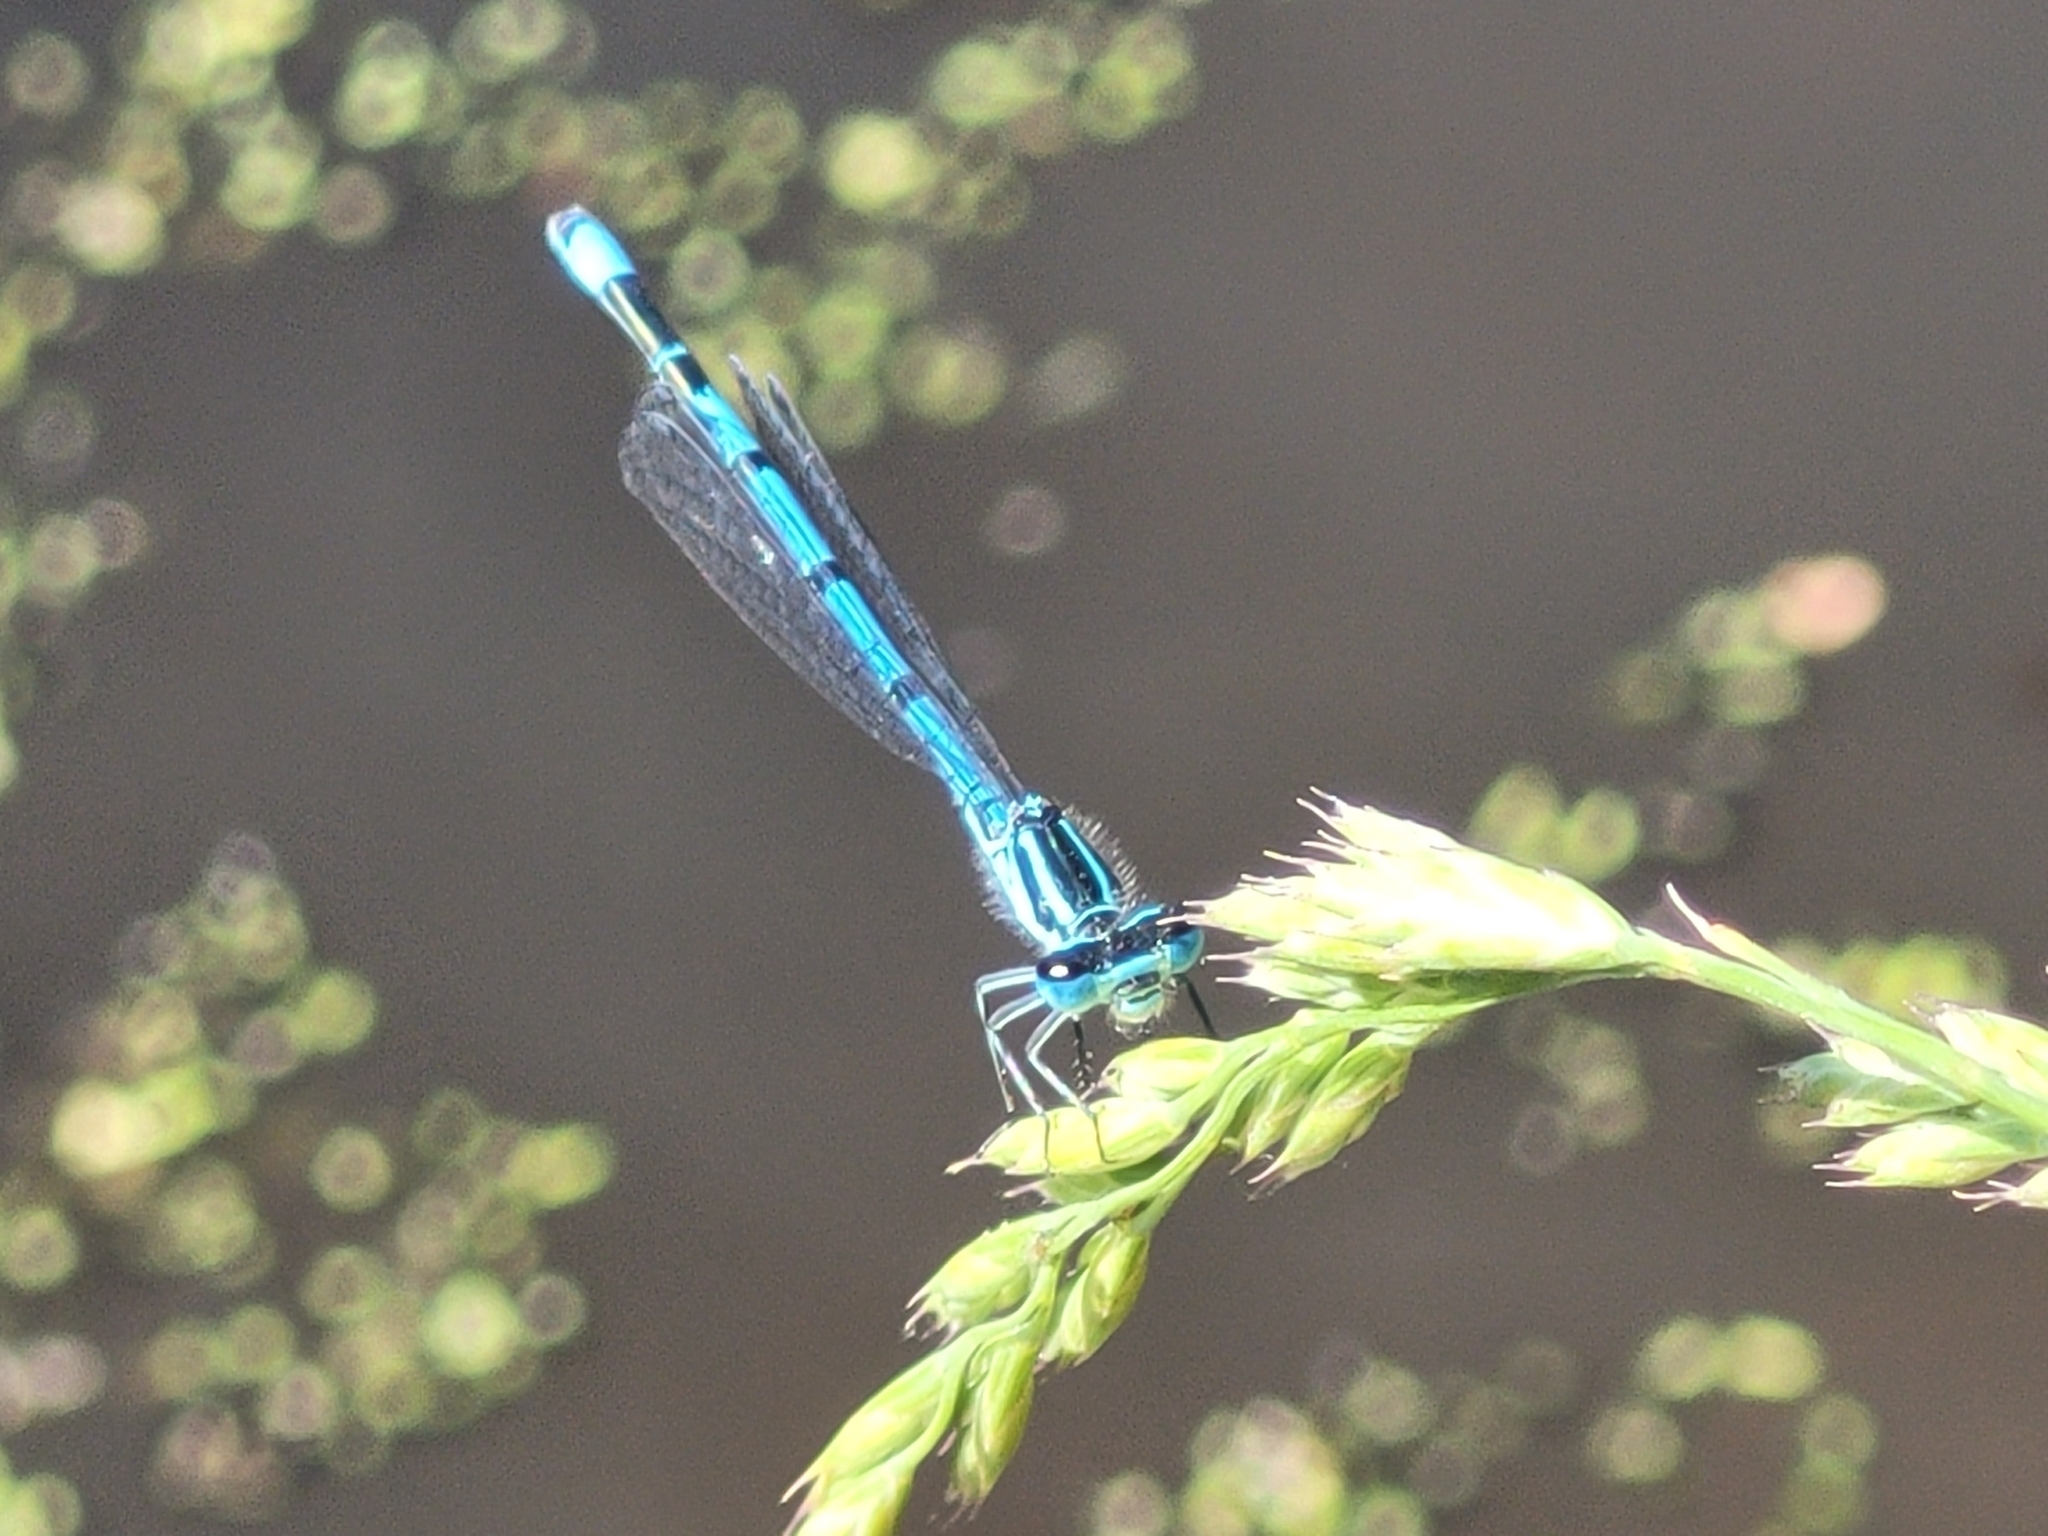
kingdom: Animalia
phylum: Arthropoda
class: Insecta
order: Odonata
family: Coenagrionidae
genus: Coenagrion
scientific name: Coenagrion puella
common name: Azure damselfly
